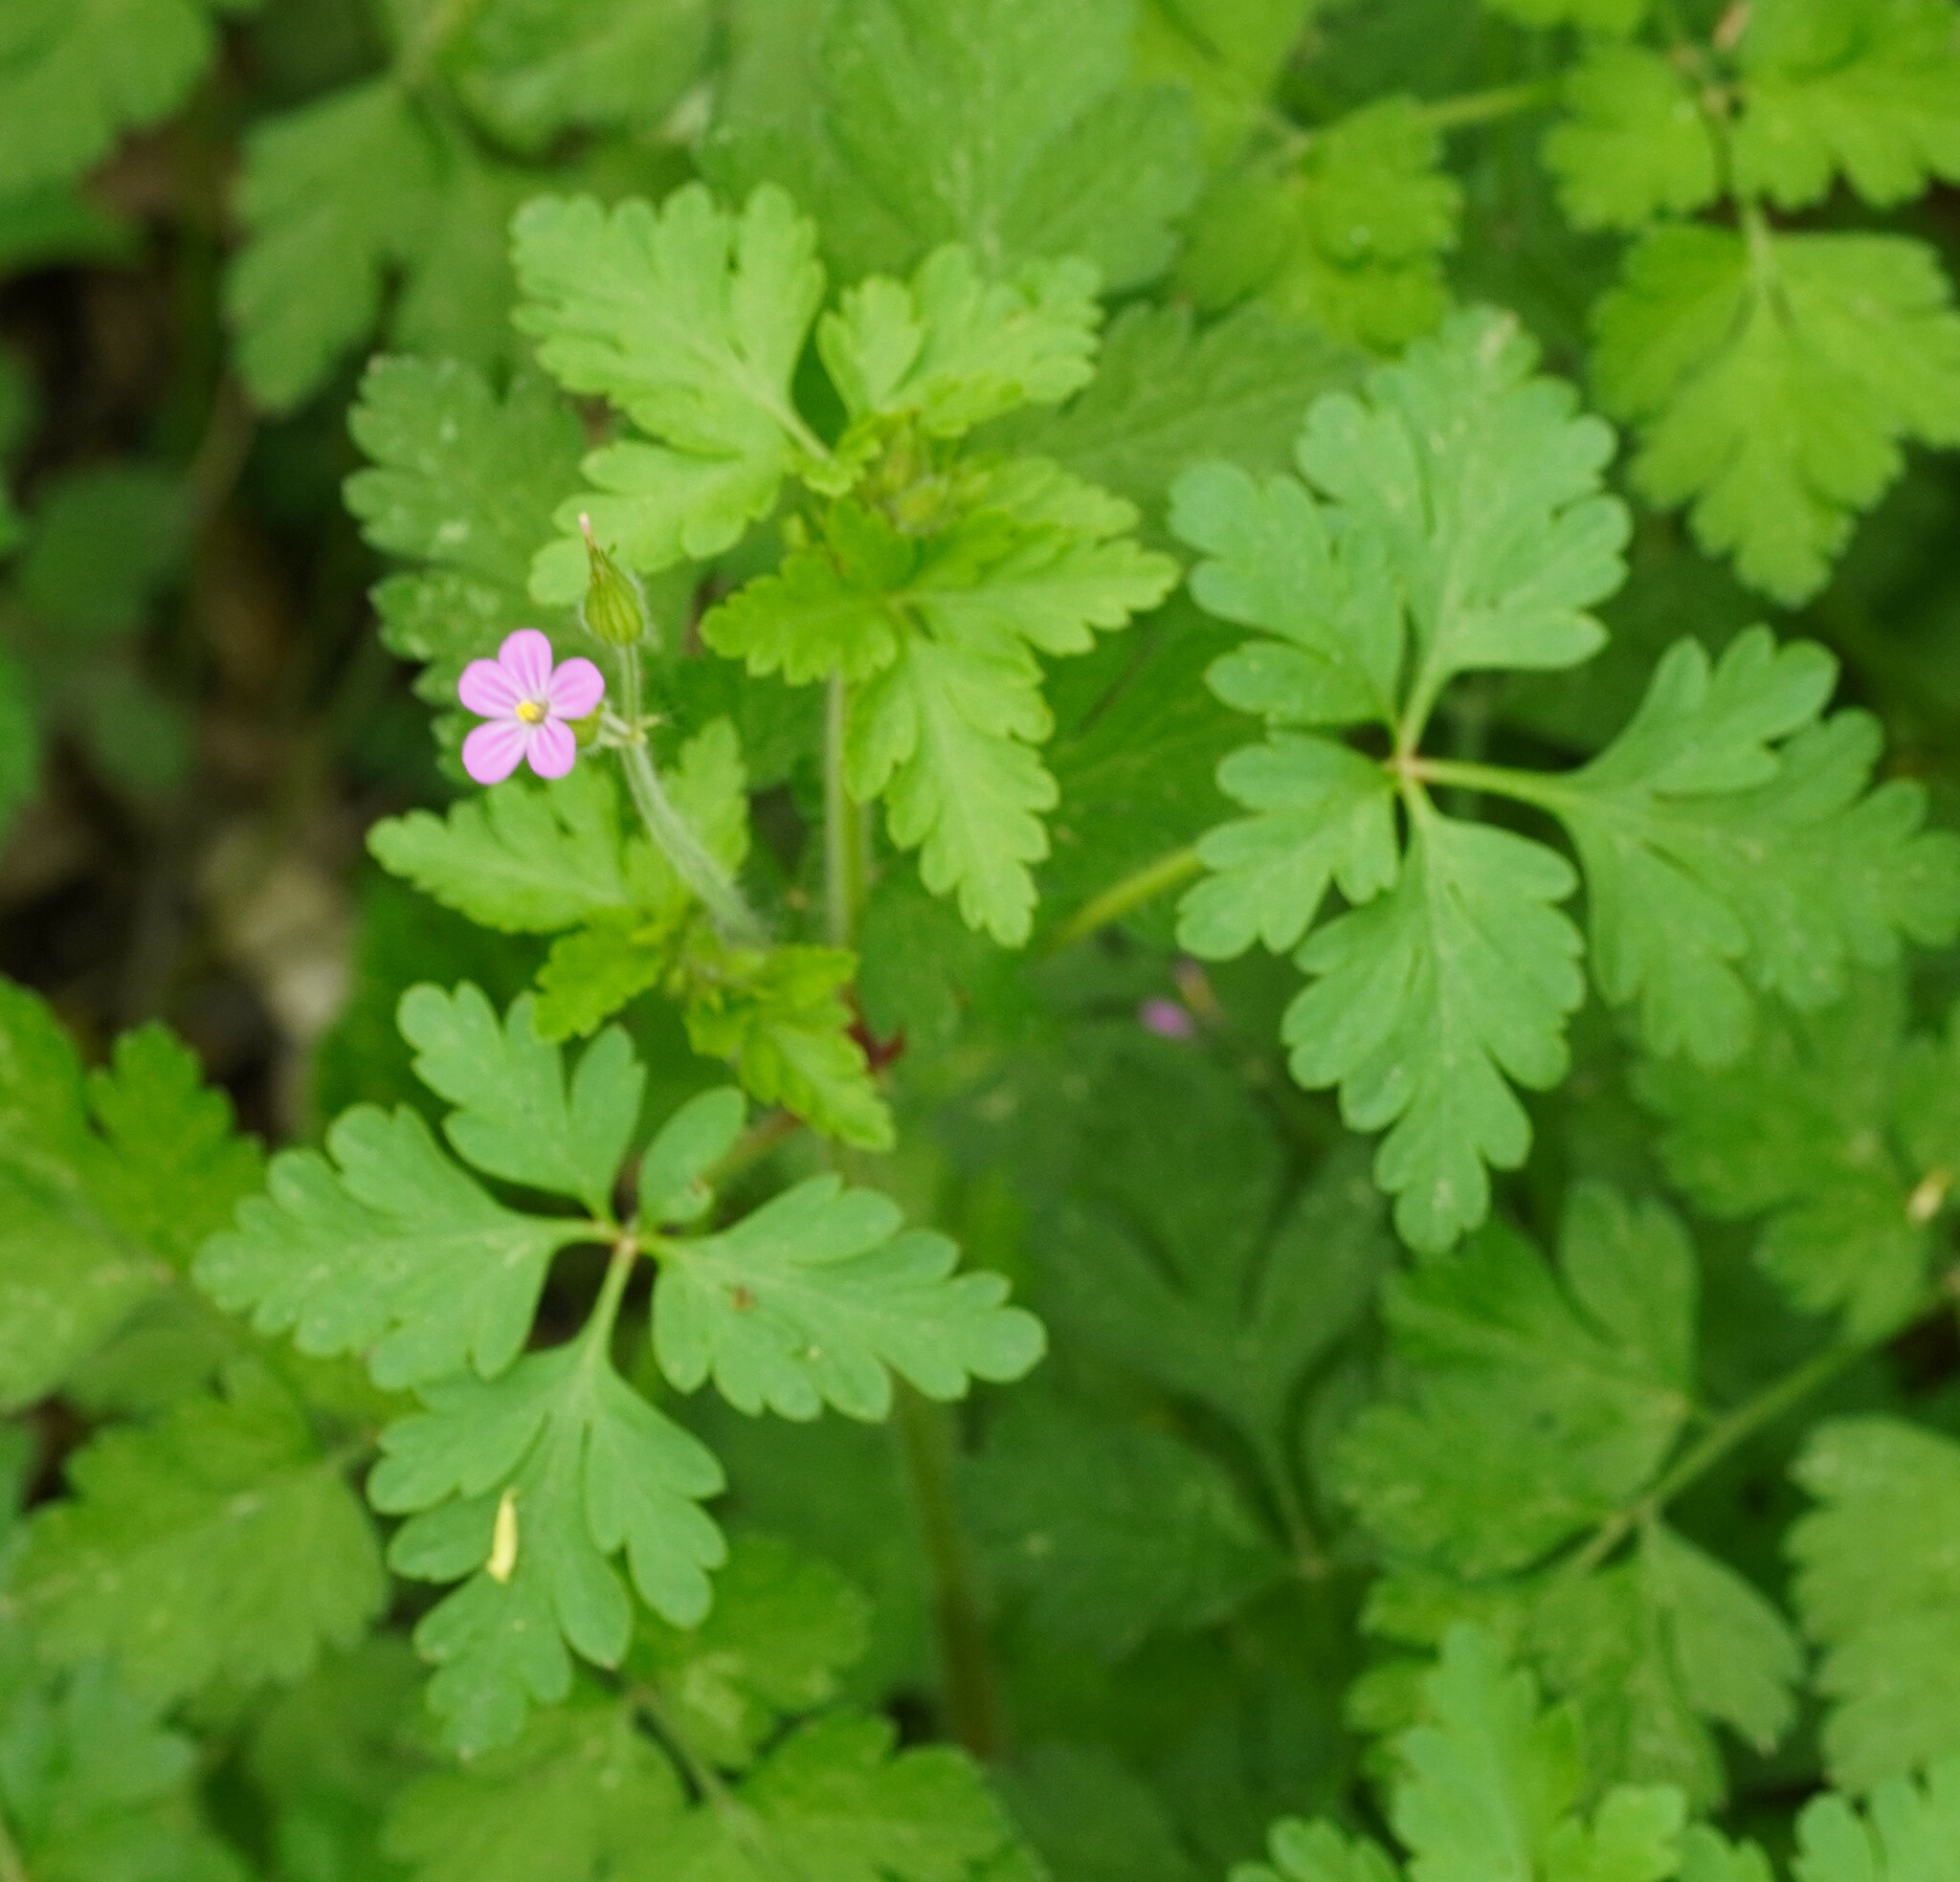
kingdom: Plantae
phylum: Tracheophyta
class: Magnoliopsida
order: Geraniales
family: Geraniaceae
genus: Geranium
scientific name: Geranium purpureum
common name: Little-robin
